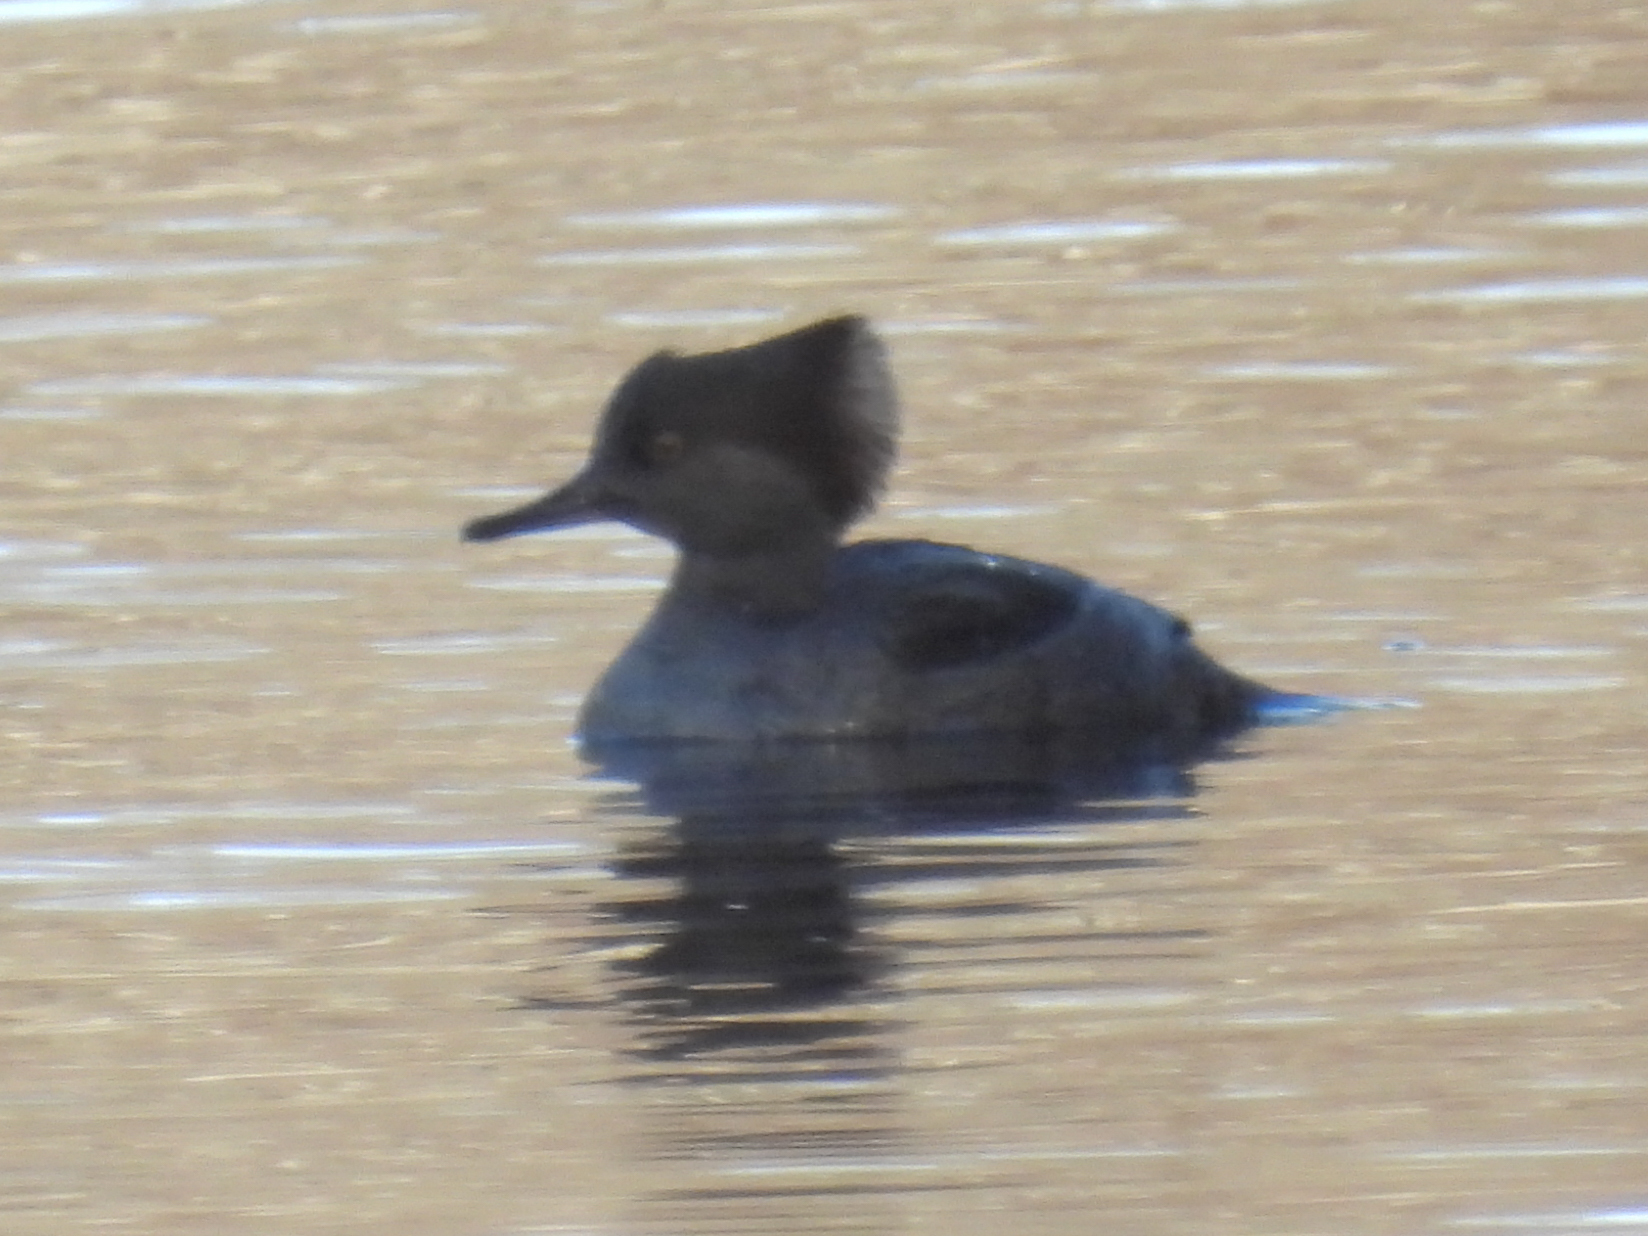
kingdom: Animalia
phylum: Chordata
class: Aves
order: Anseriformes
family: Anatidae
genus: Lophodytes
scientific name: Lophodytes cucullatus
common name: Hooded merganser
